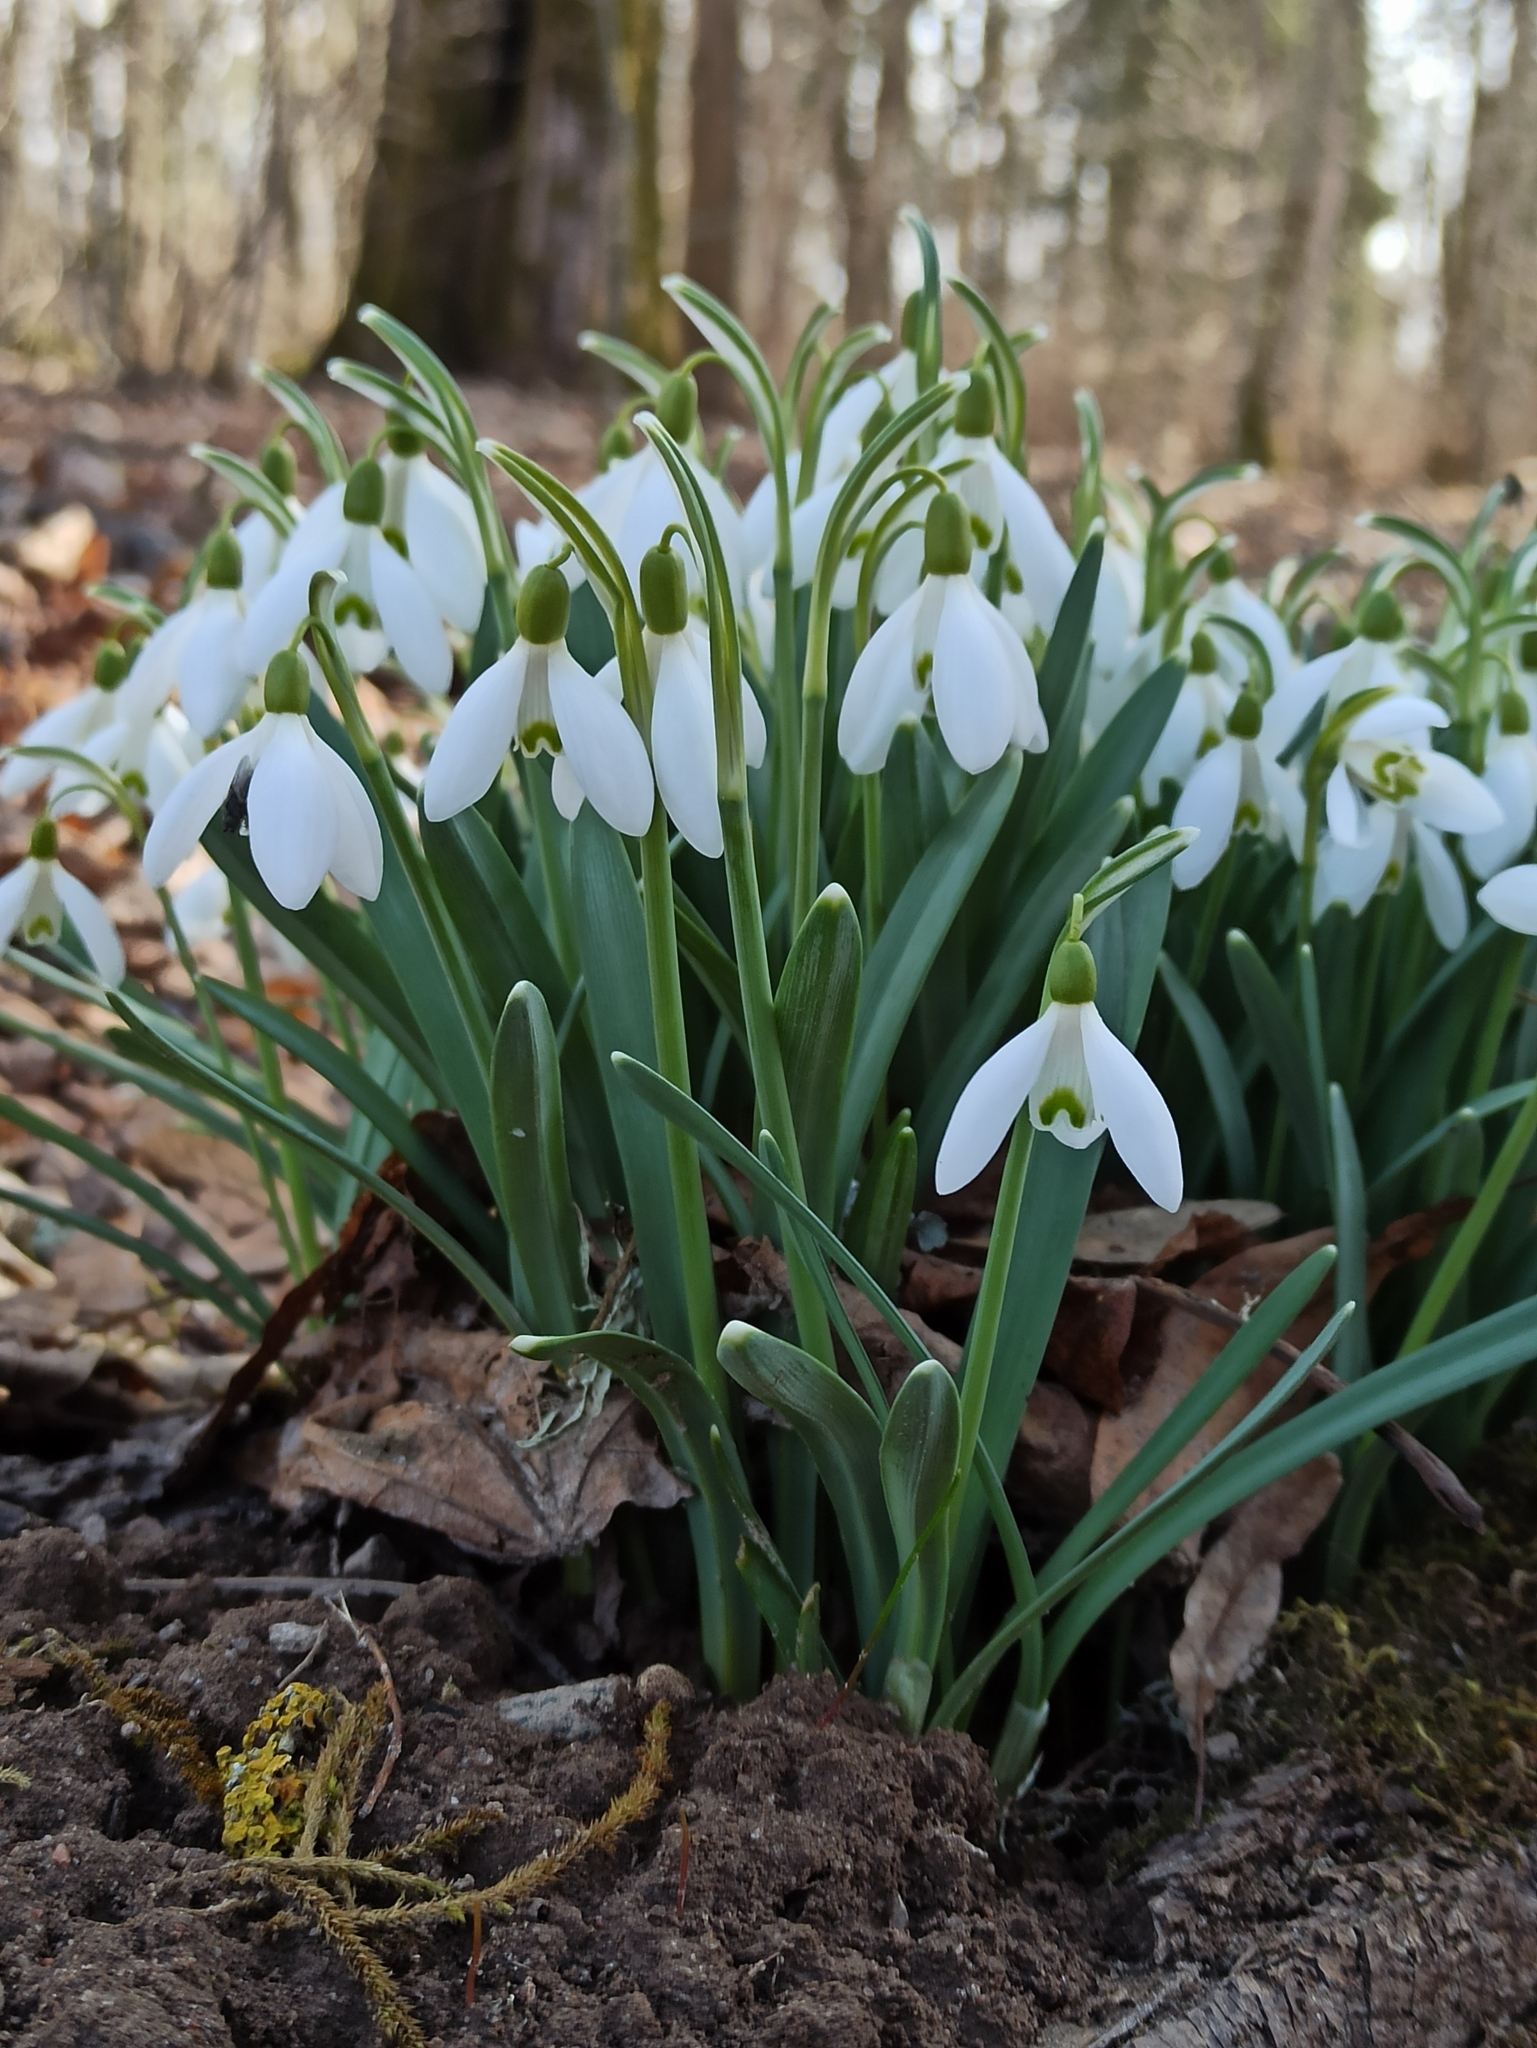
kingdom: Plantae
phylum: Tracheophyta
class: Liliopsida
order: Asparagales
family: Amaryllidaceae
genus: Galanthus
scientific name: Galanthus nivalis
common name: Snowdrop
